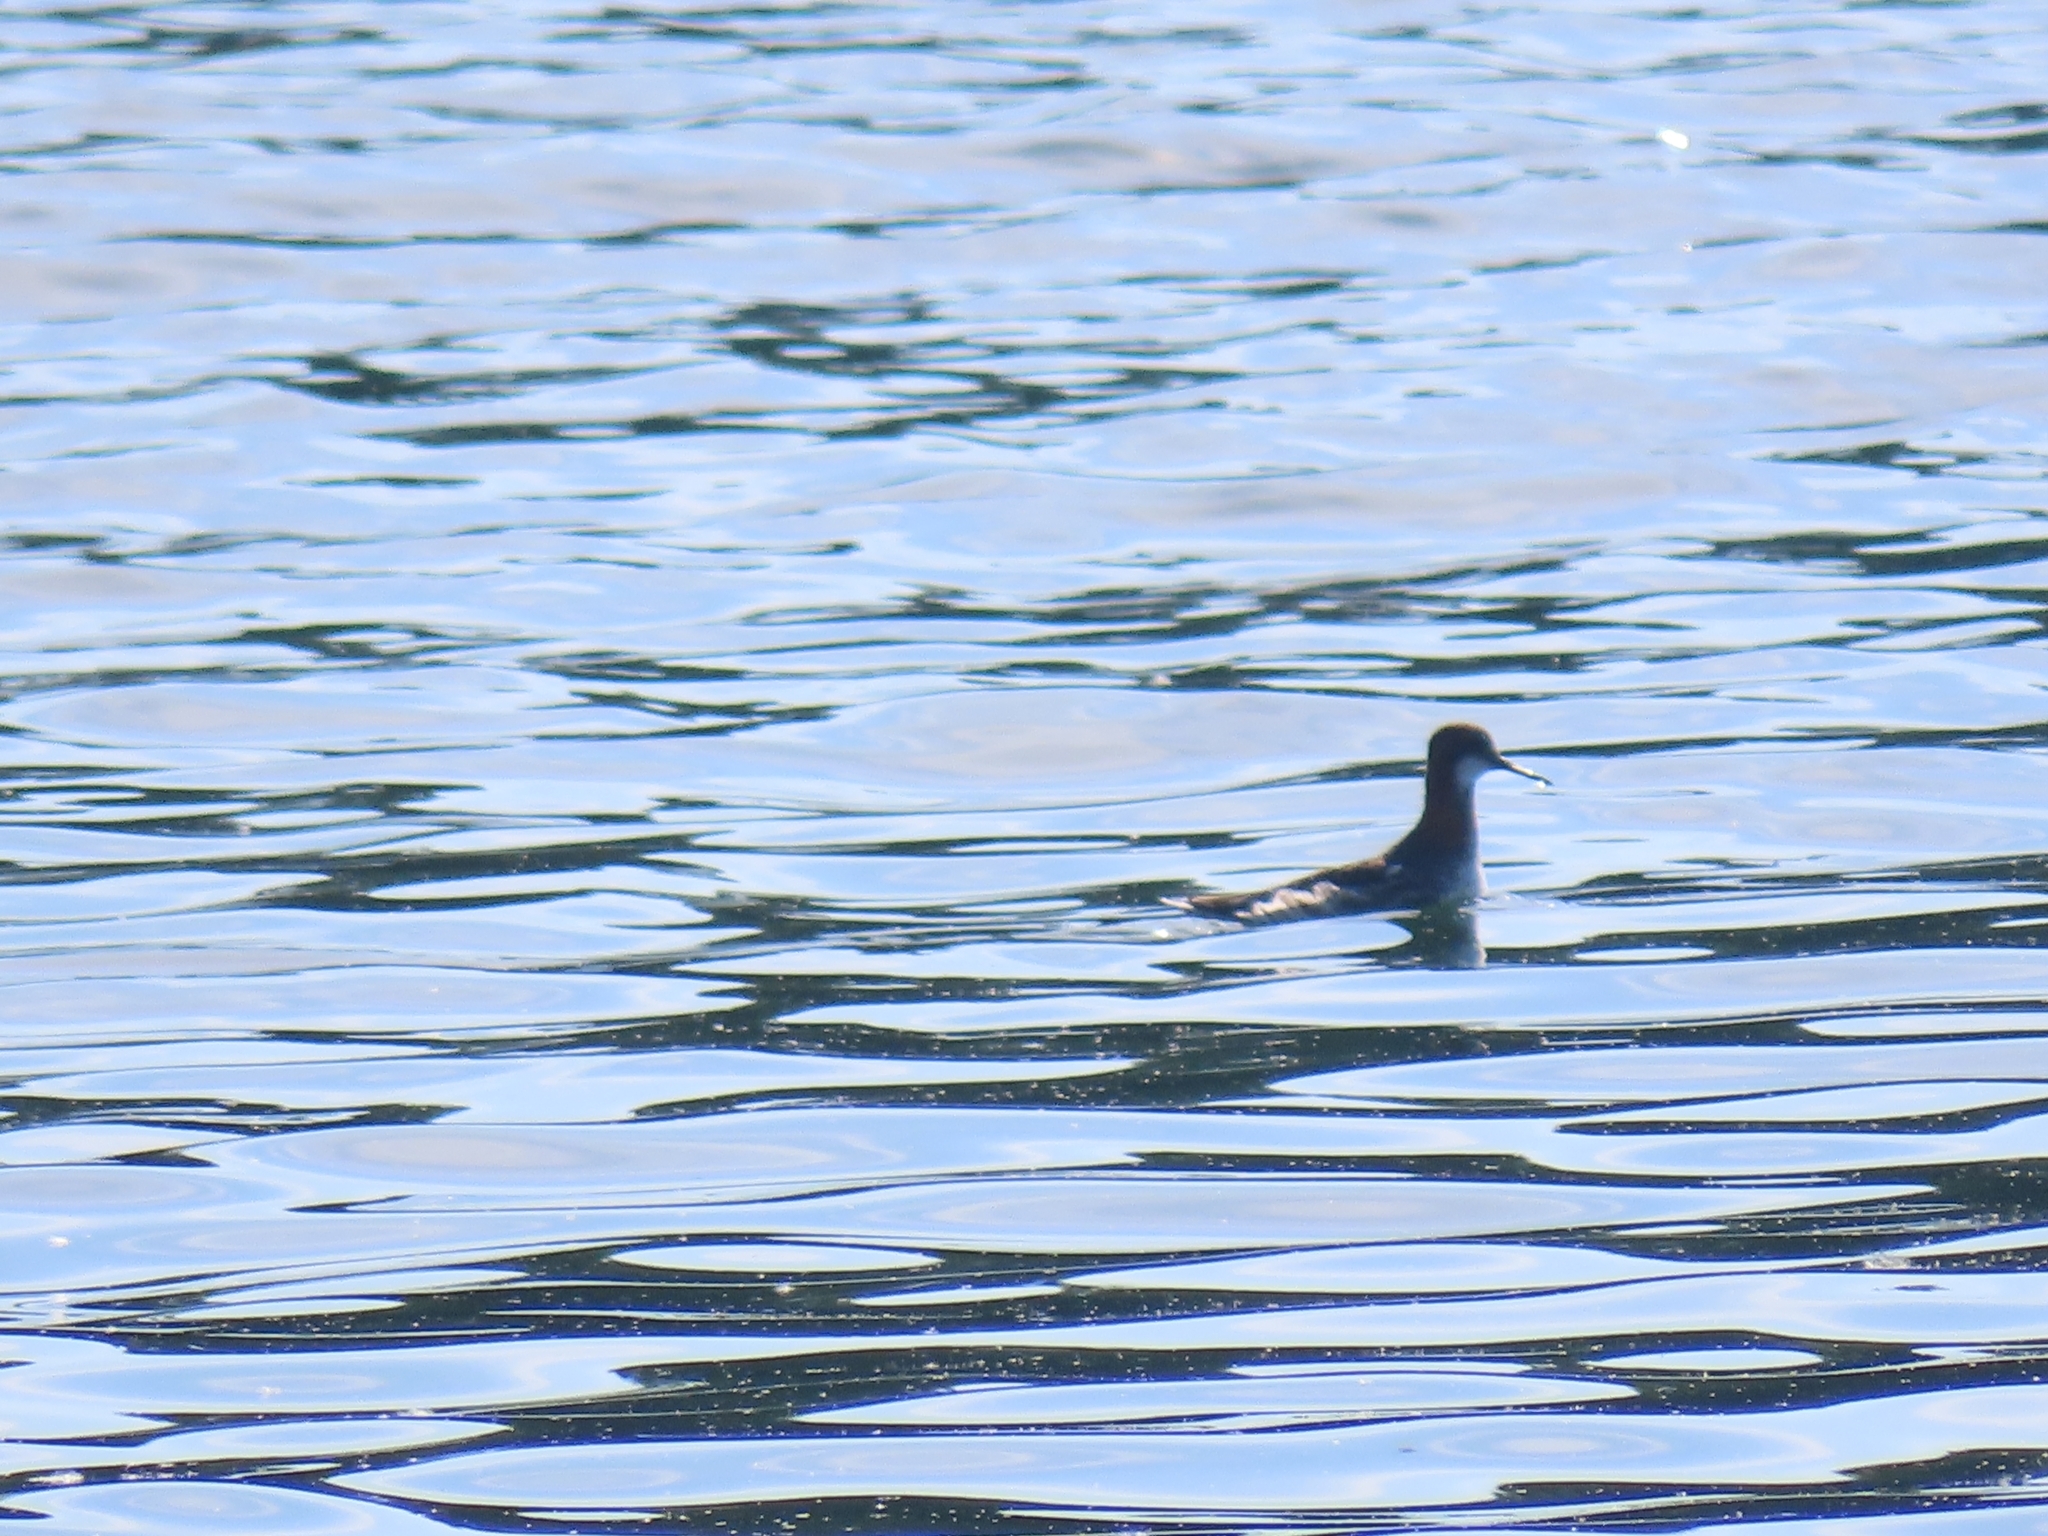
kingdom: Animalia
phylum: Chordata
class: Aves
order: Charadriiformes
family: Scolopacidae
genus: Phalaropus
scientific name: Phalaropus lobatus
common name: Red-necked phalarope
